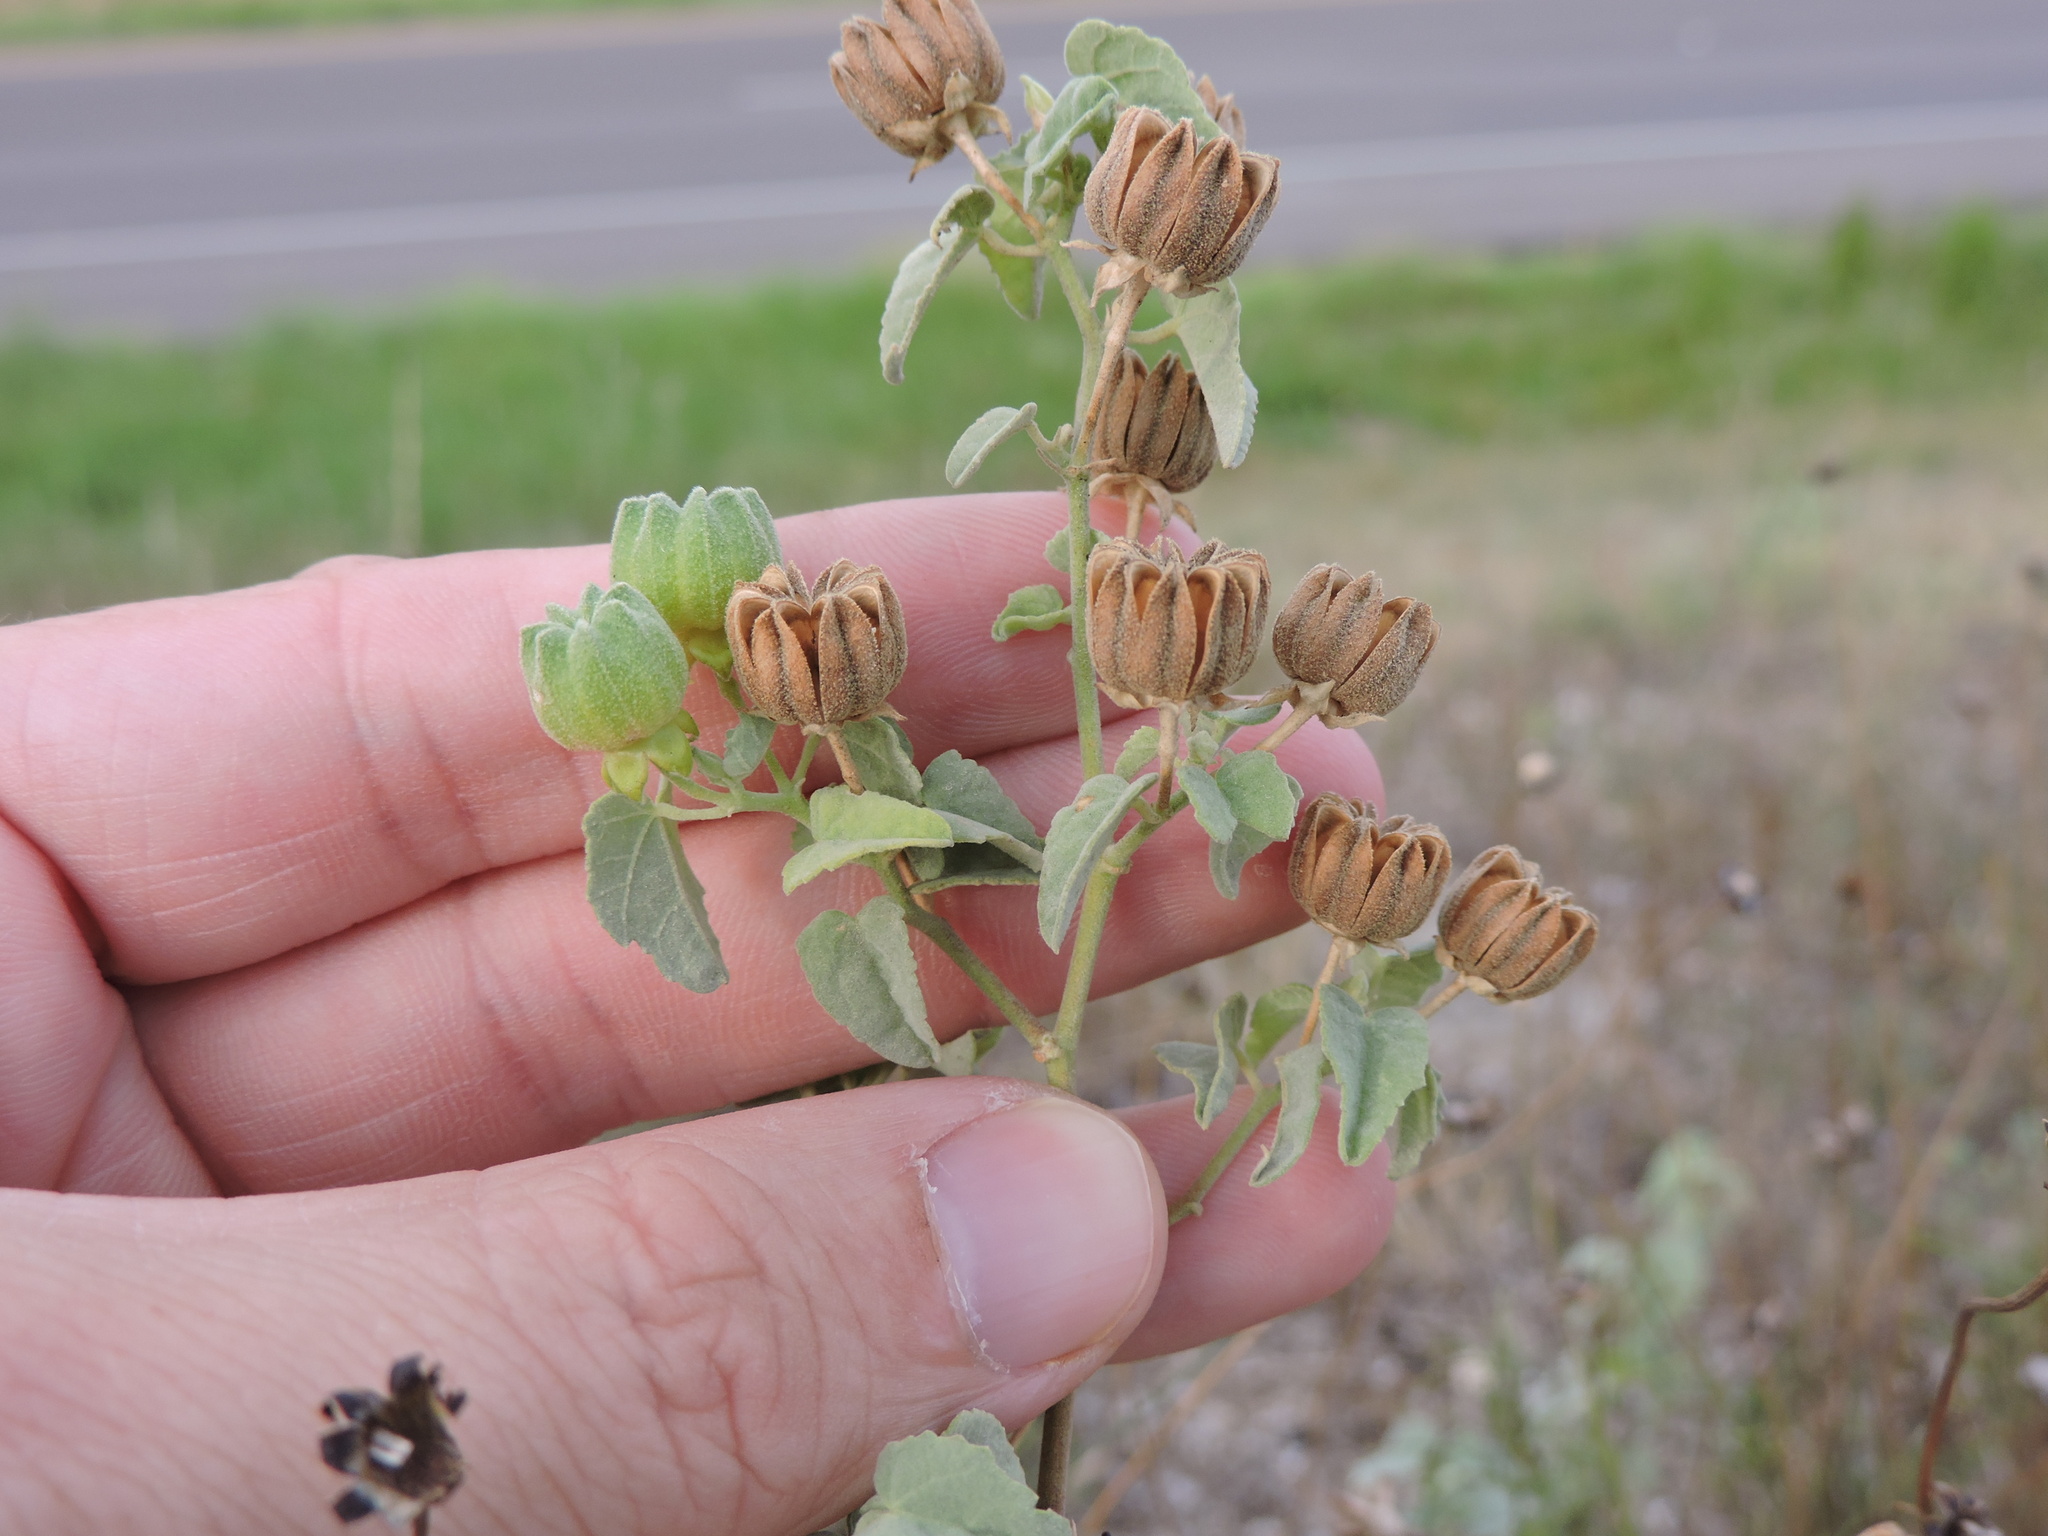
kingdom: Plantae
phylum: Tracheophyta
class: Magnoliopsida
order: Malvales
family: Malvaceae
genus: Abutilon
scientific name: Abutilon fruticosum
